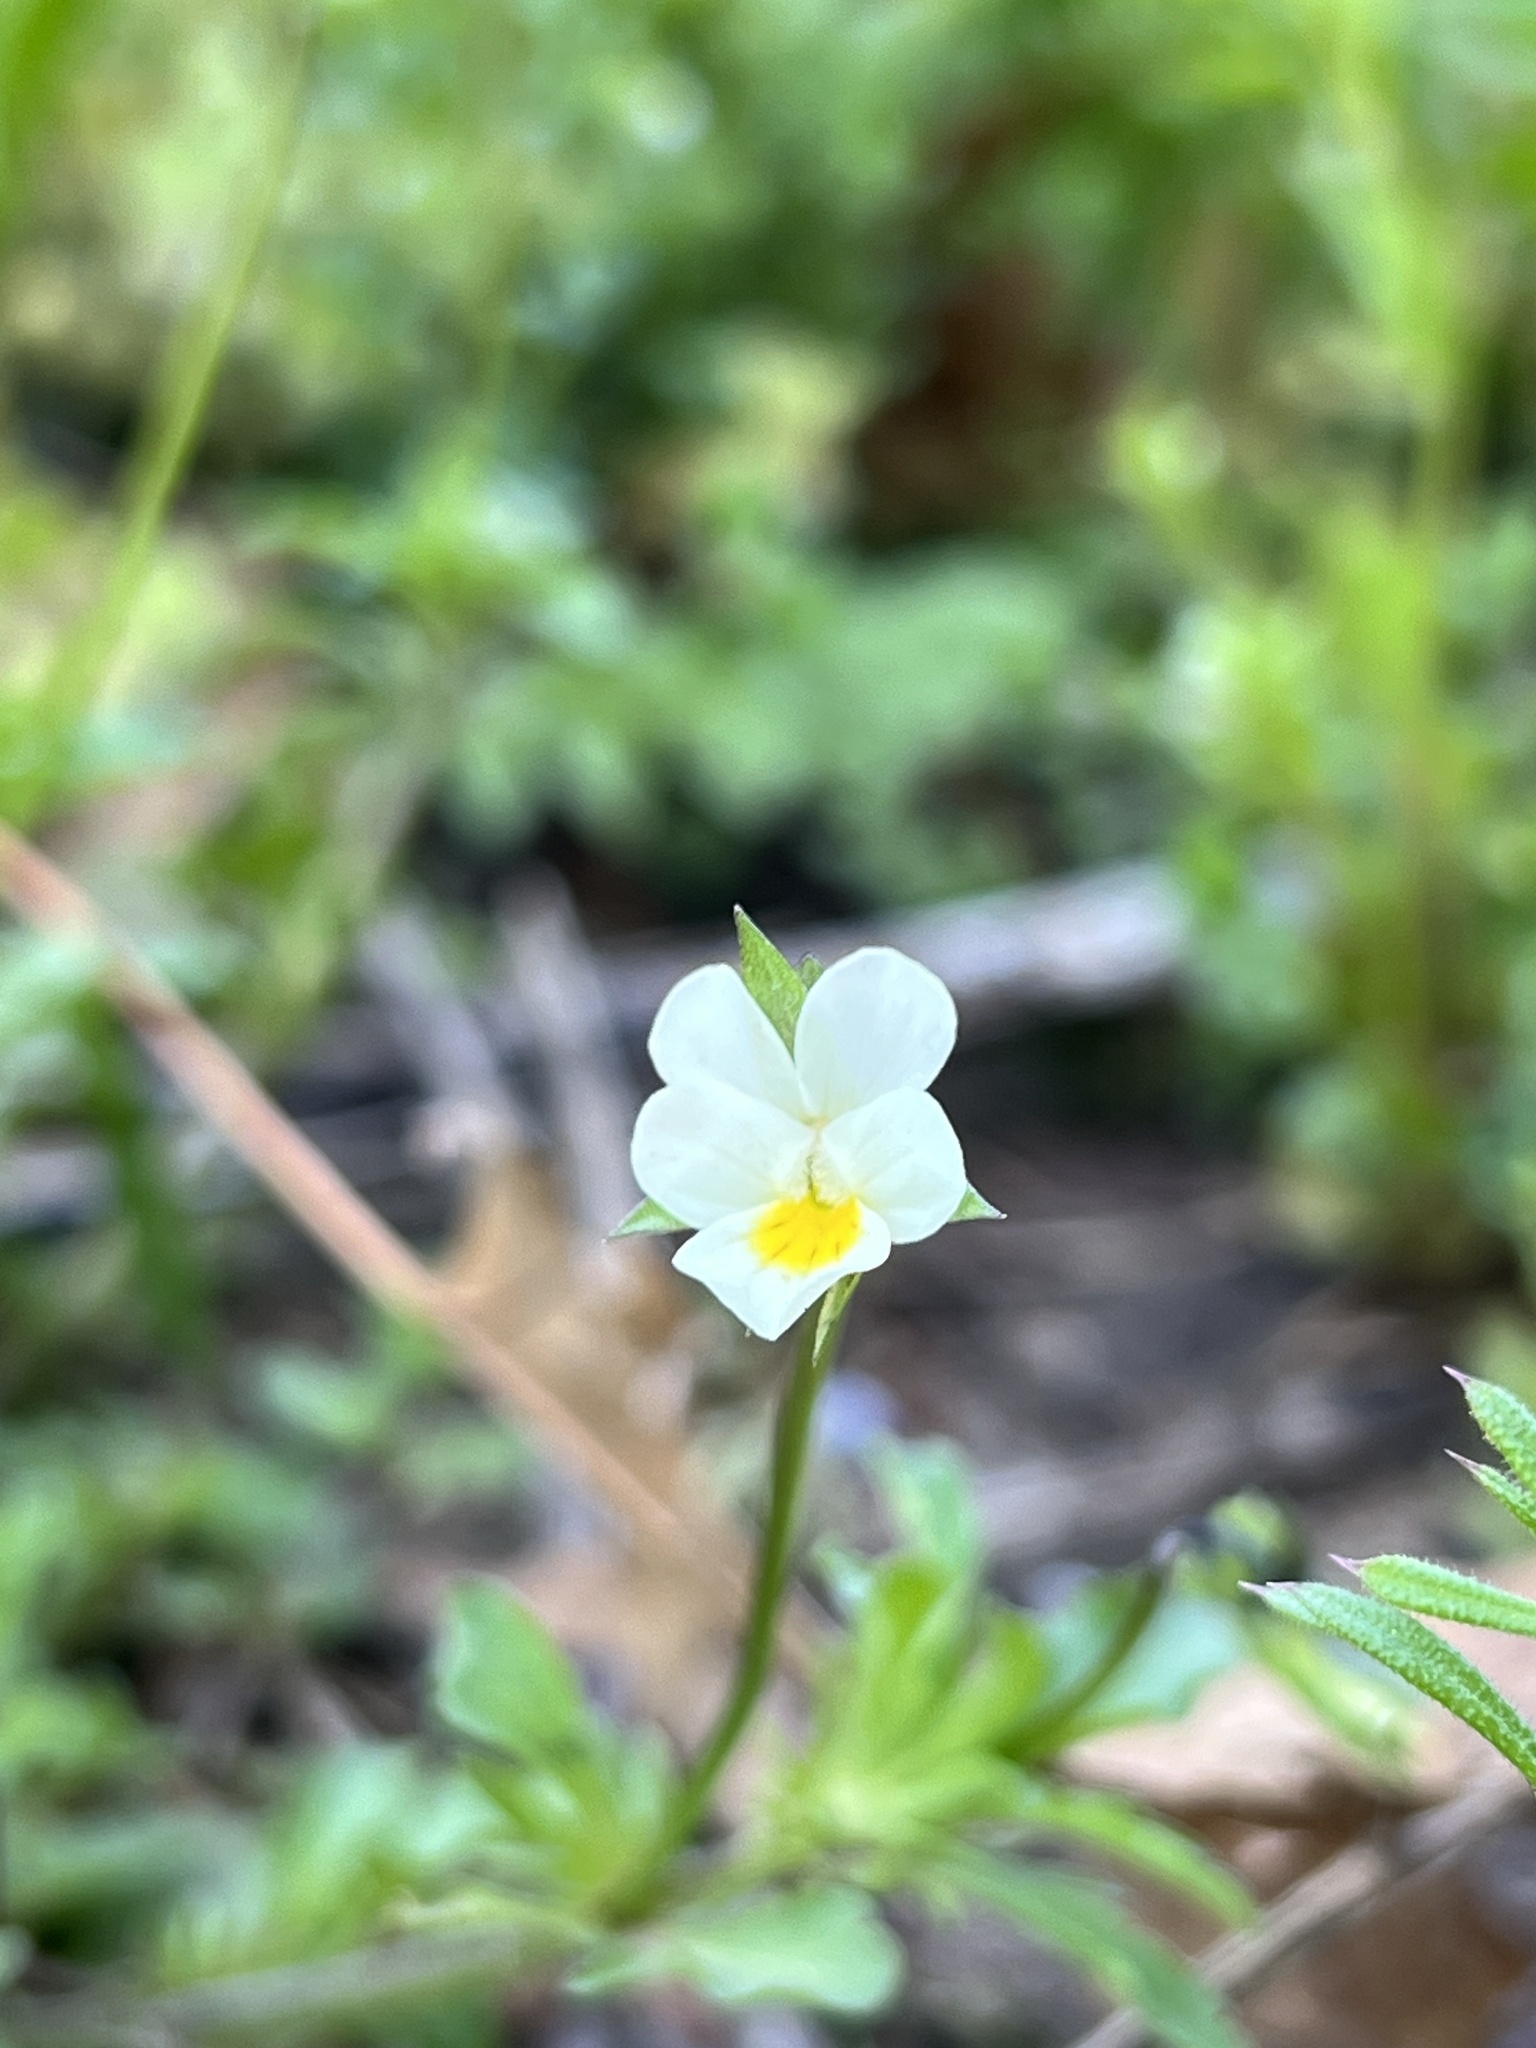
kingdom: Plantae
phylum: Tracheophyta
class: Magnoliopsida
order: Malpighiales
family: Violaceae
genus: Viola
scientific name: Viola arvensis
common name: Field pansy
